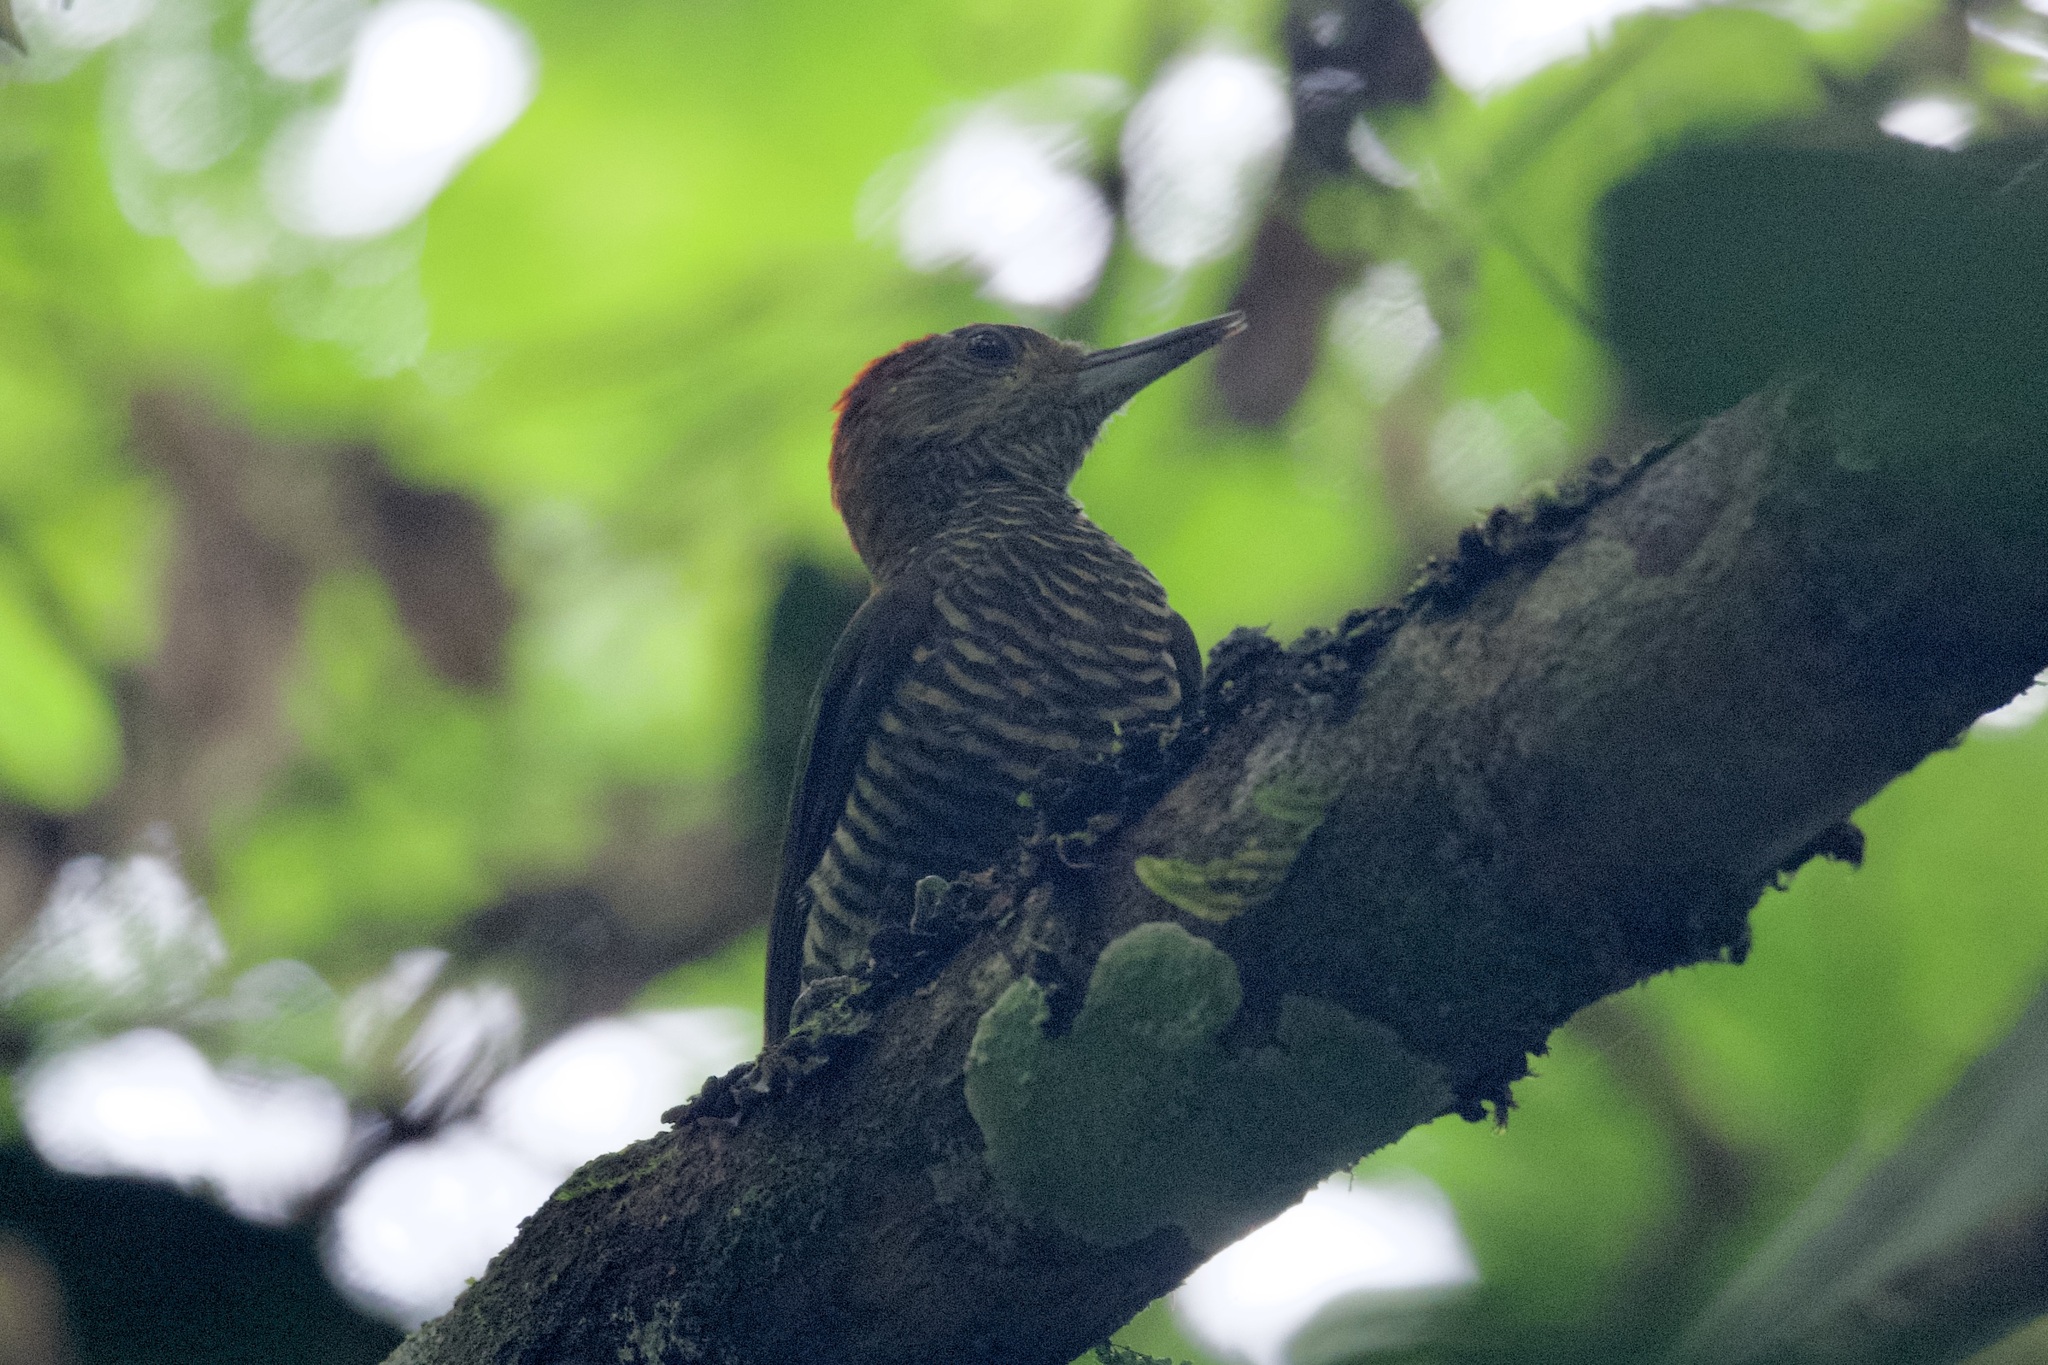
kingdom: Animalia
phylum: Chordata
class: Aves
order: Piciformes
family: Picidae
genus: Veniliornis
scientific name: Veniliornis affinis
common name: Red-stained woodpecker
